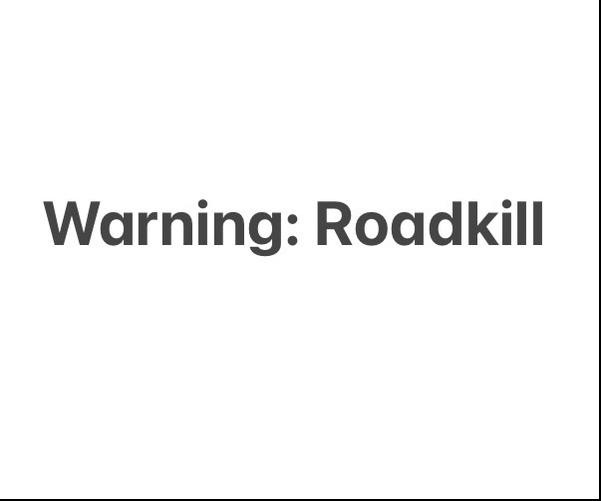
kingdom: Animalia
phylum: Chordata
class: Squamata
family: Colubridae
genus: Thamnophis
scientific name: Thamnophis sirtalis
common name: Common garter snake
